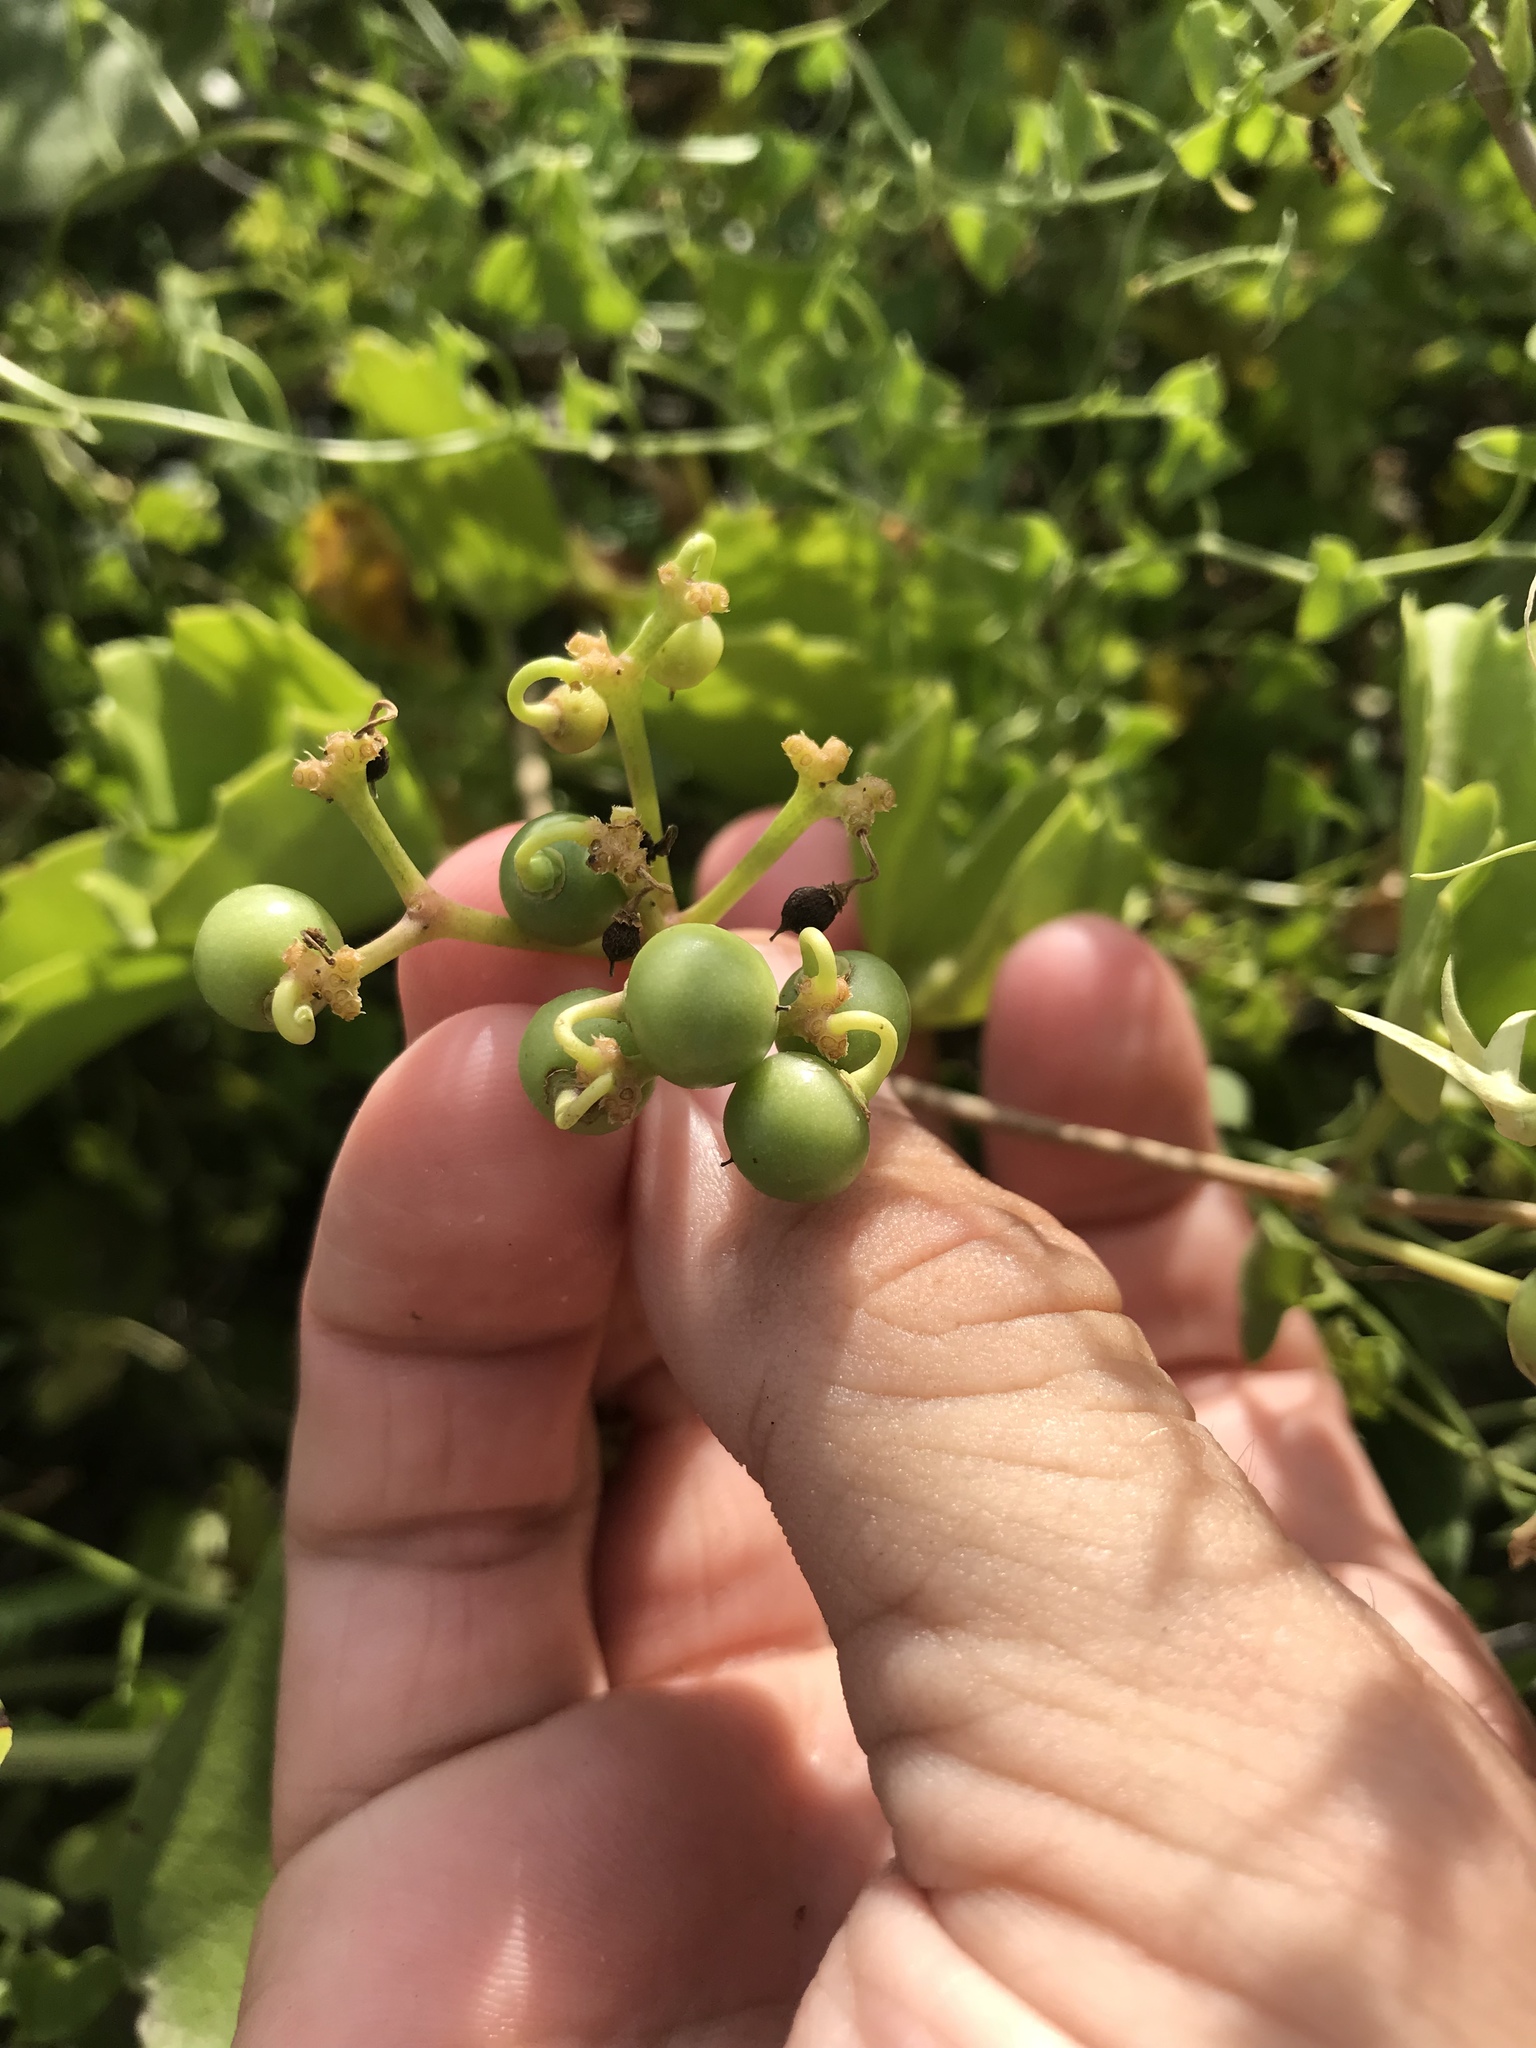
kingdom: Plantae
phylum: Tracheophyta
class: Magnoliopsida
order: Vitales
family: Vitaceae
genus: Cissus
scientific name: Cissus trifoliata
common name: Vine-sorrel
